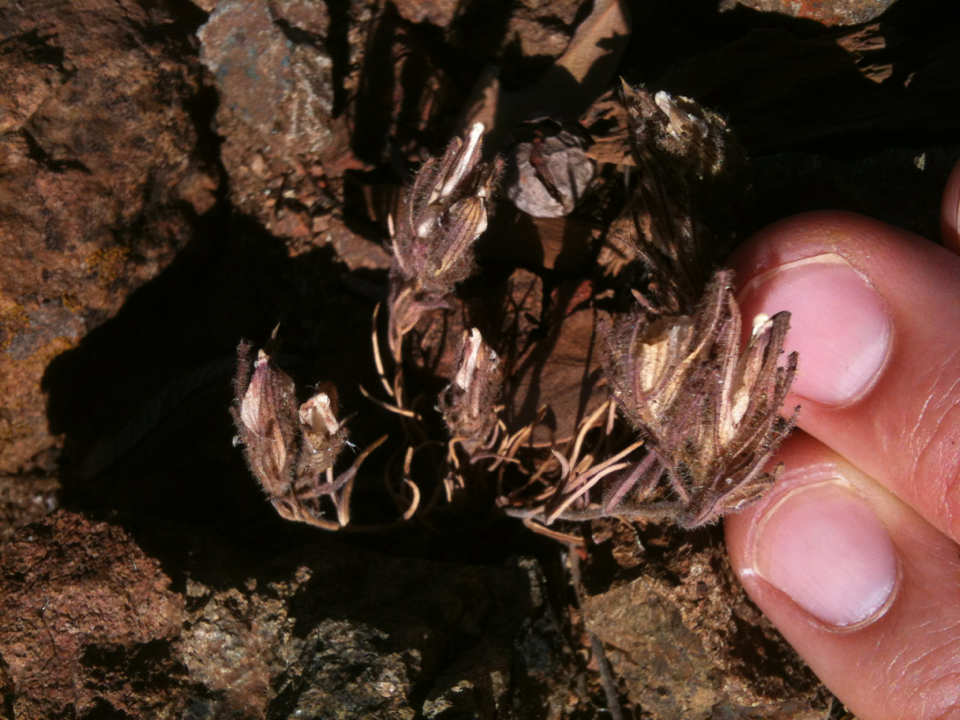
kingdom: Plantae
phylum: Tracheophyta
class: Magnoliopsida
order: Lamiales
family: Orobanchaceae
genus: Cordylanthus
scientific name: Cordylanthus nidularius
